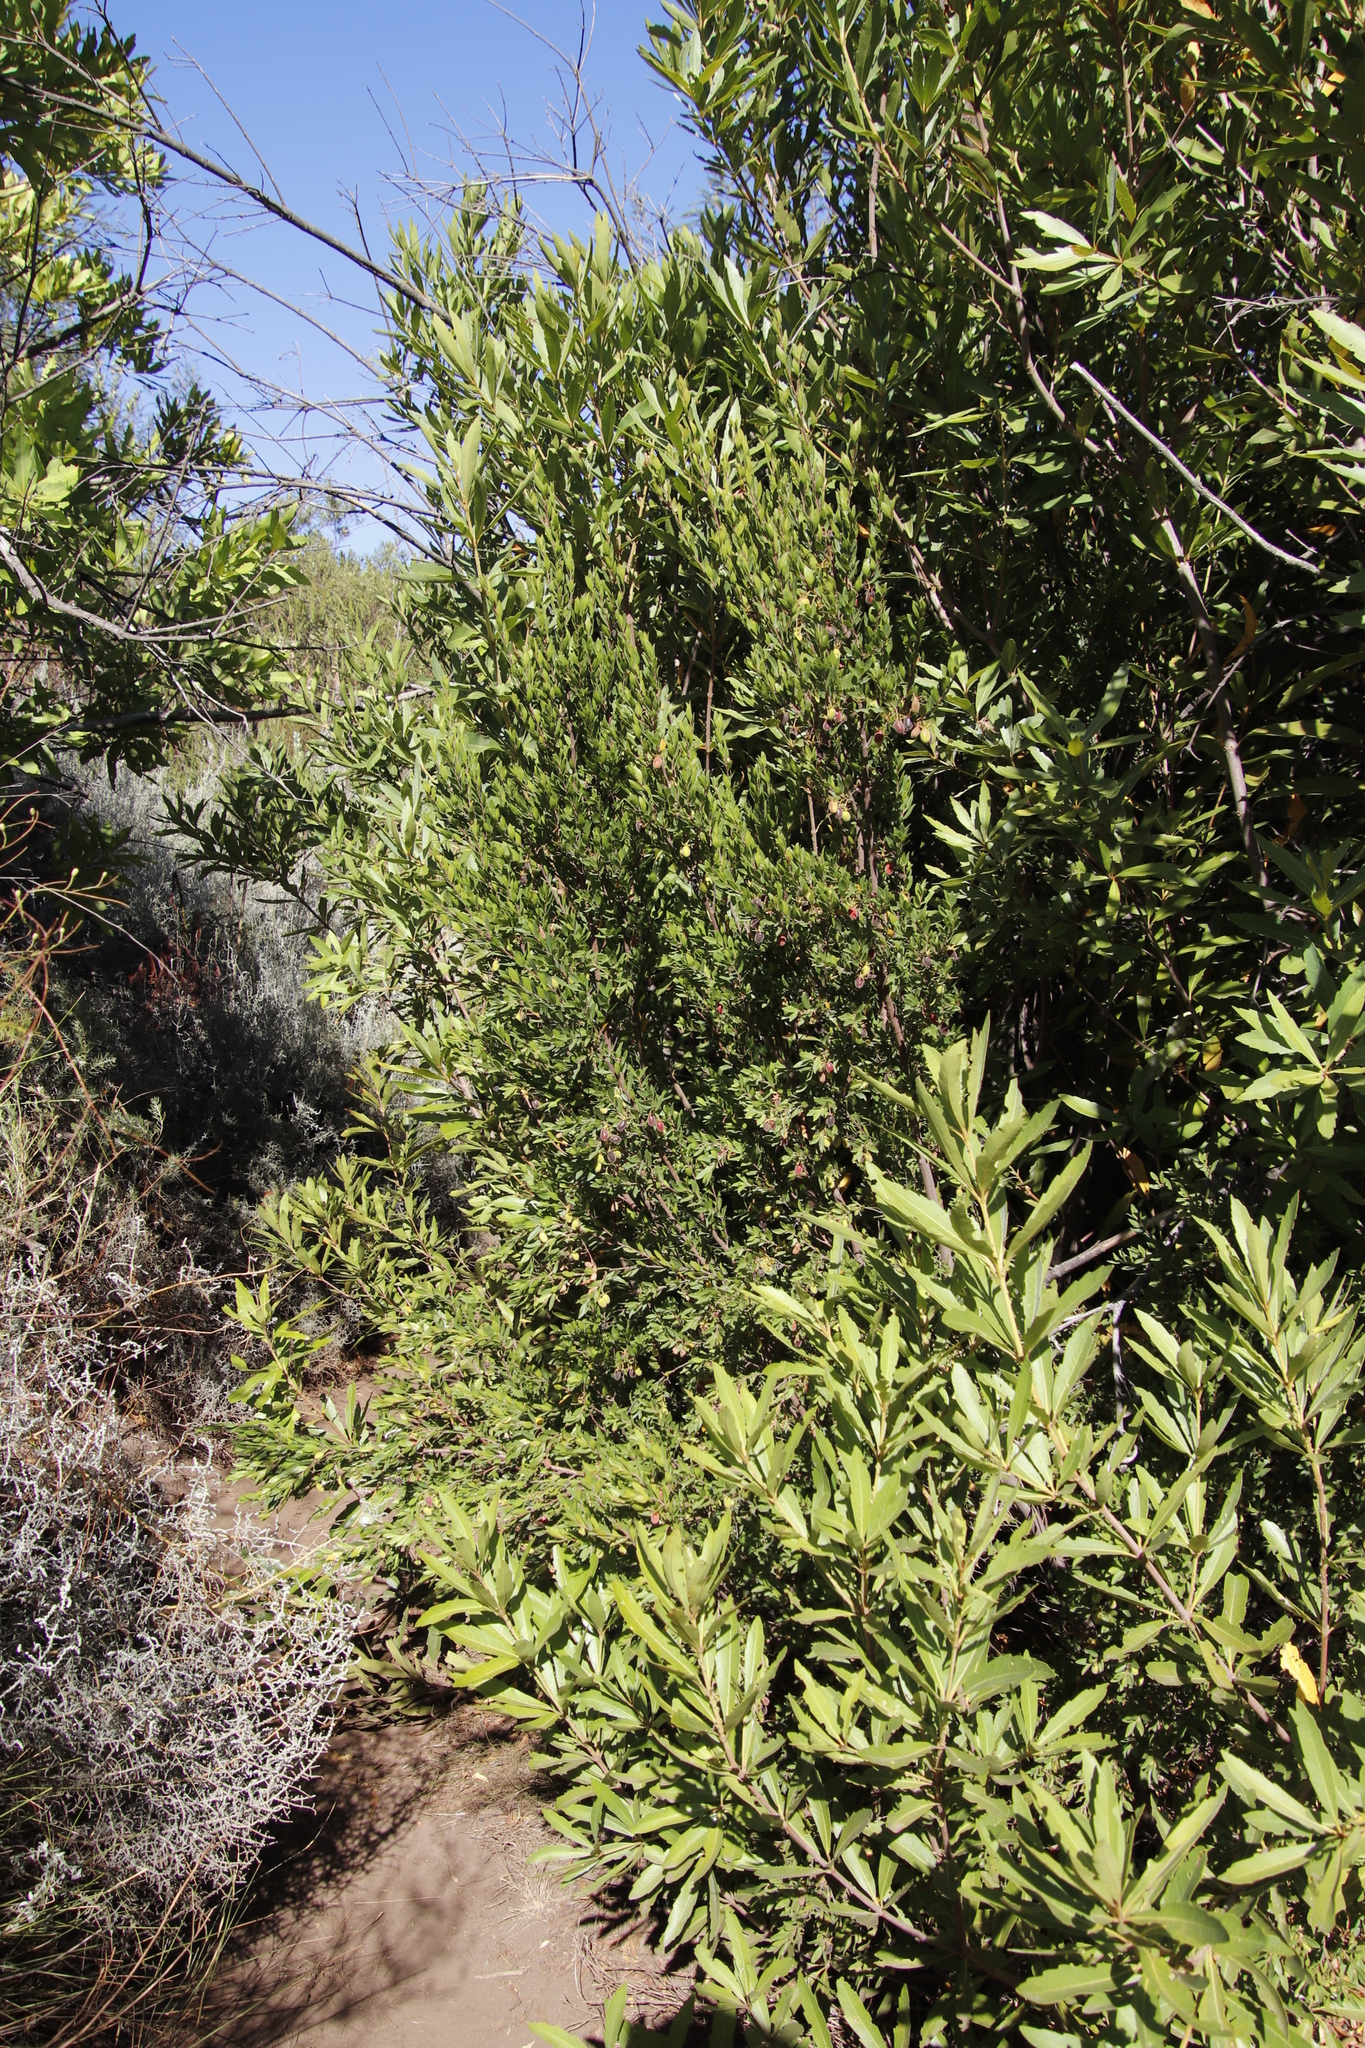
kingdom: Plantae
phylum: Tracheophyta
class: Magnoliopsida
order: Ericales
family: Ebenaceae
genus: Diospyros
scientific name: Diospyros glabra
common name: Fynbos star apple
